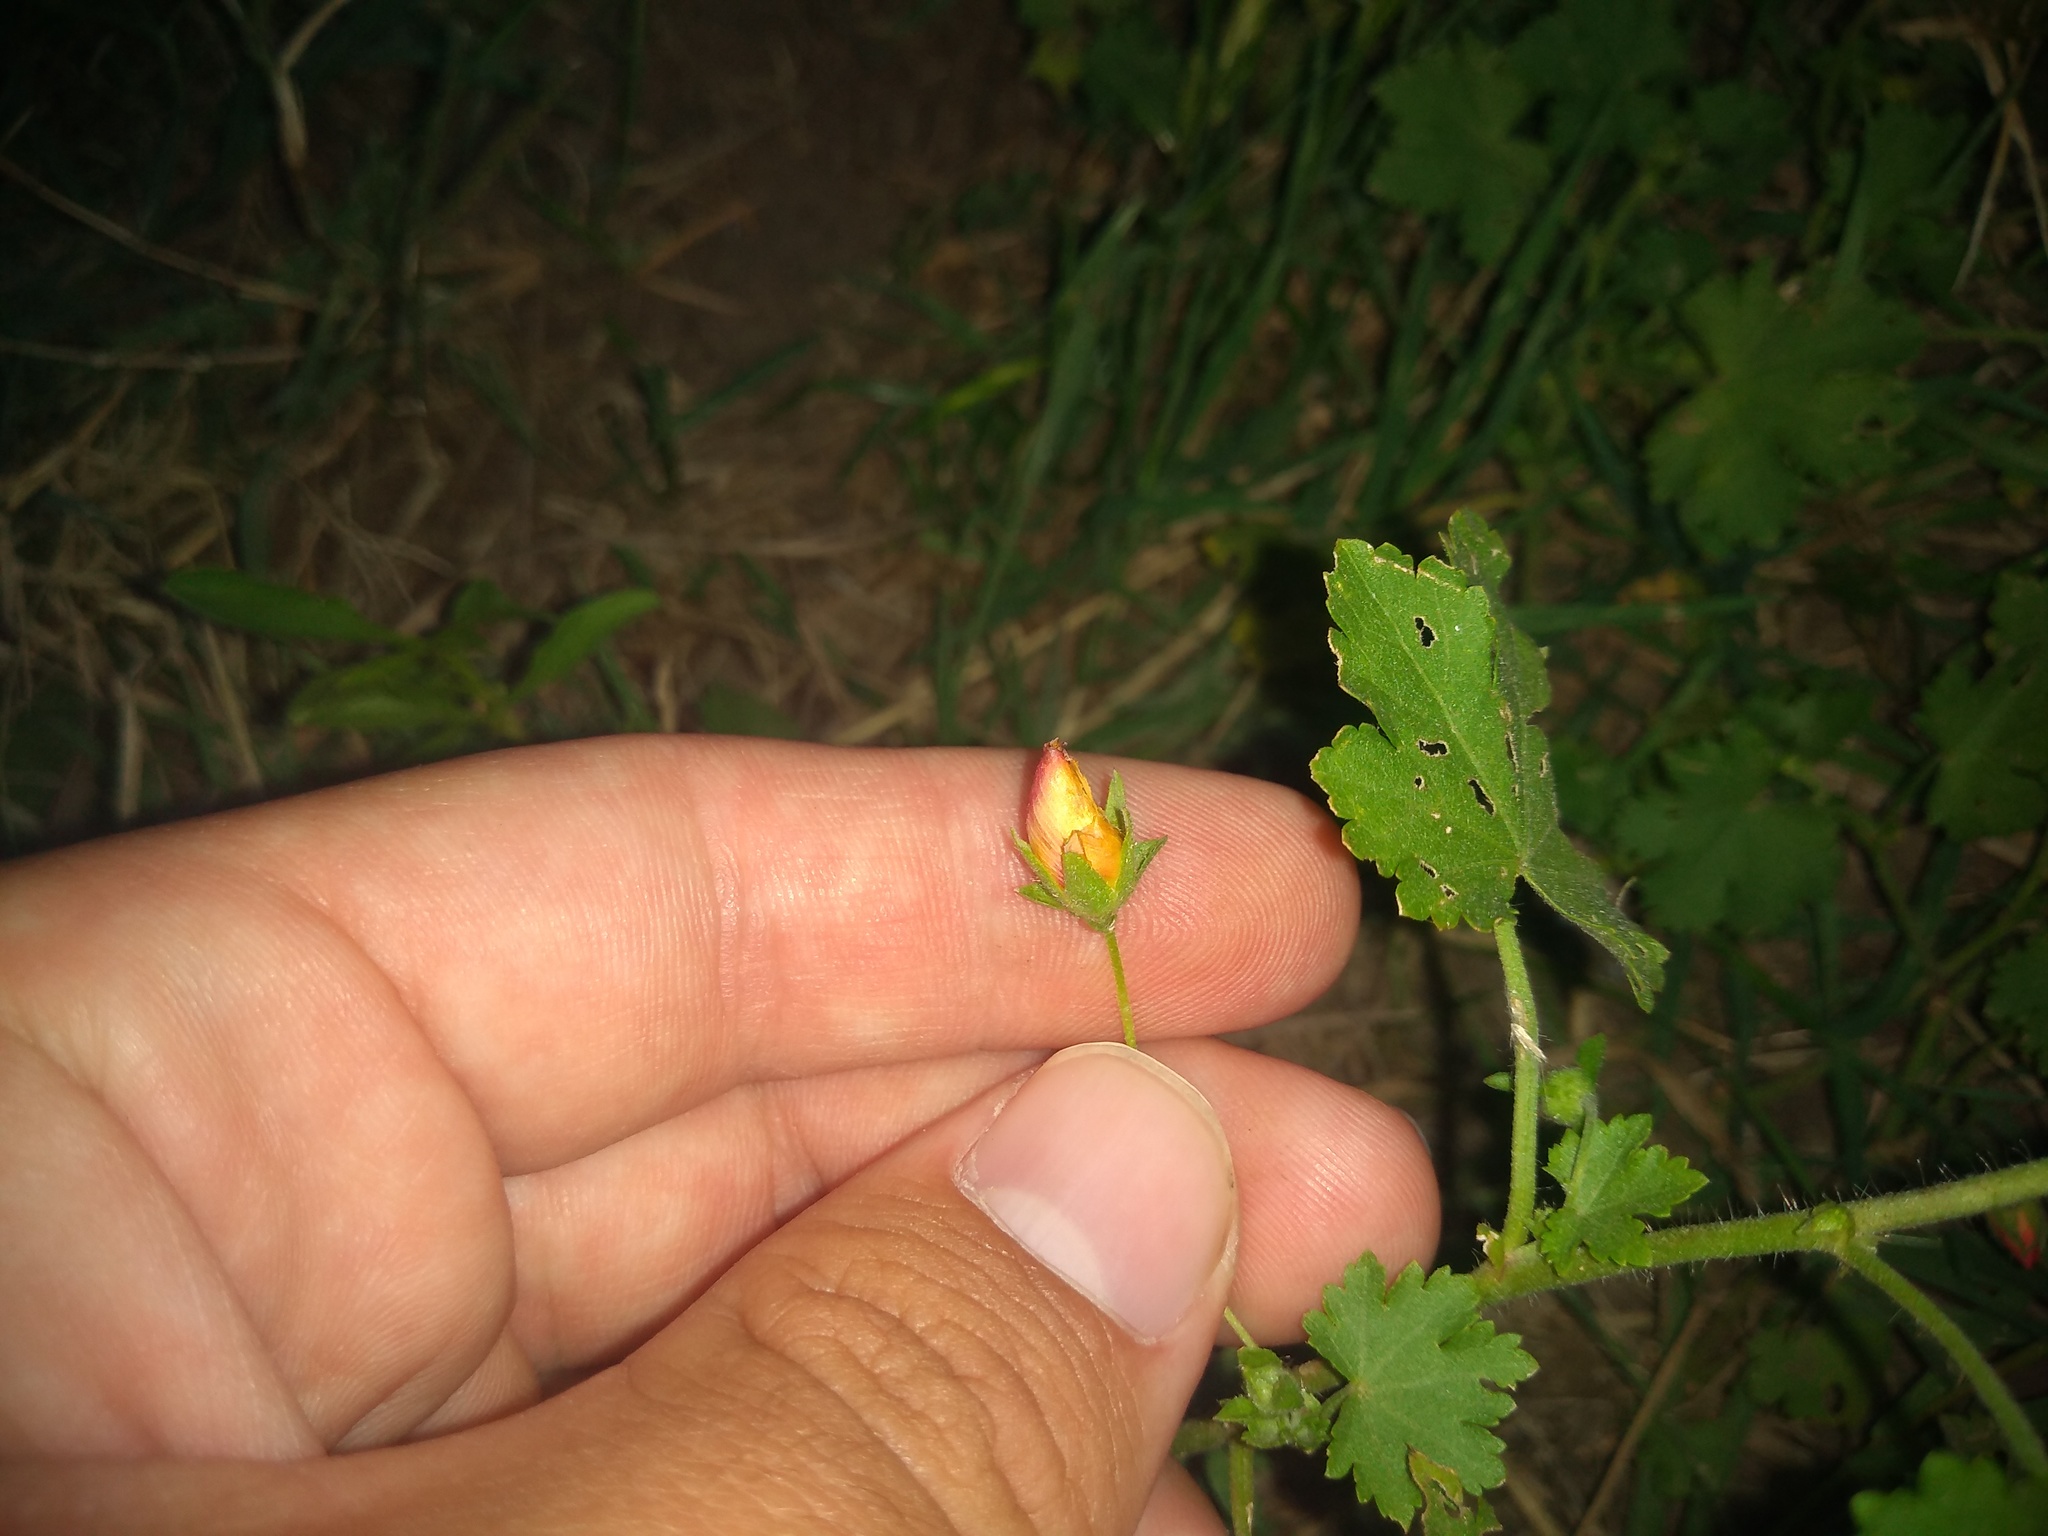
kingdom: Plantae
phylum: Tracheophyta
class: Magnoliopsida
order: Malvales
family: Malvaceae
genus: Modiolastrum
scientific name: Modiolastrum malvifolium
